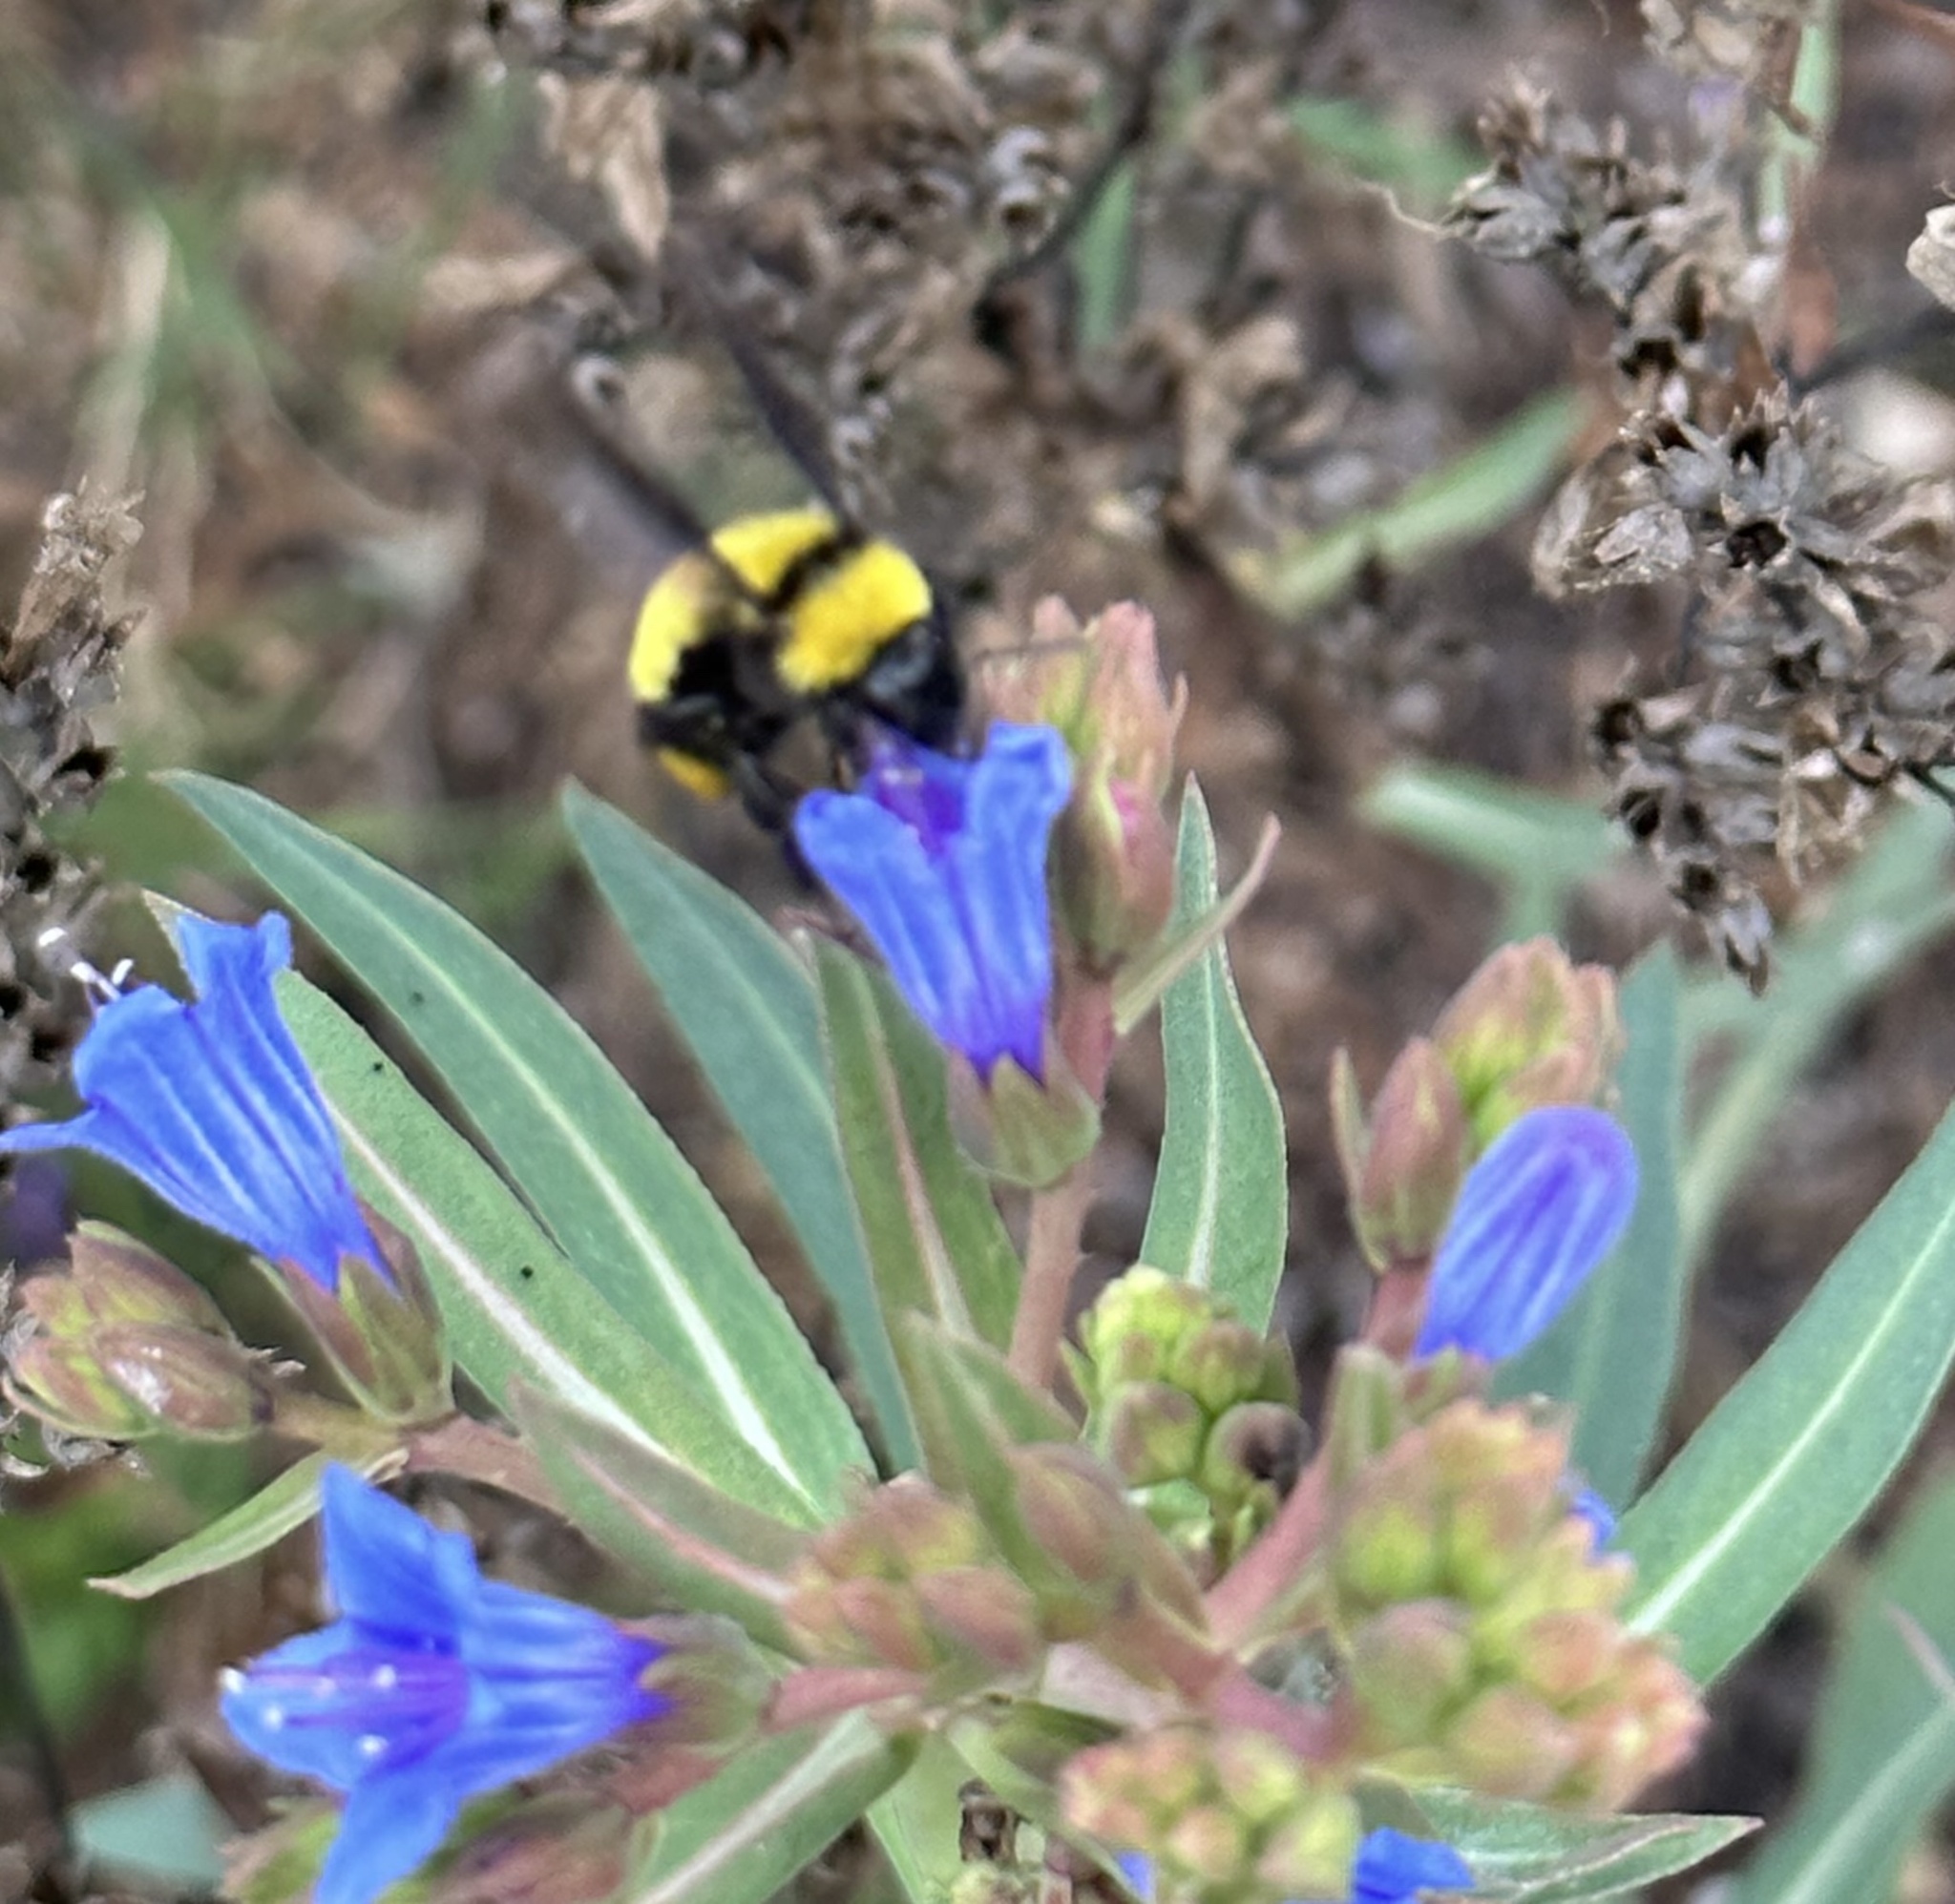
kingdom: Animalia
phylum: Arthropoda
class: Insecta
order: Hymenoptera
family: Apidae
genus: Bombus
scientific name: Bombus sonorus
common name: Sonoran bumble bee
